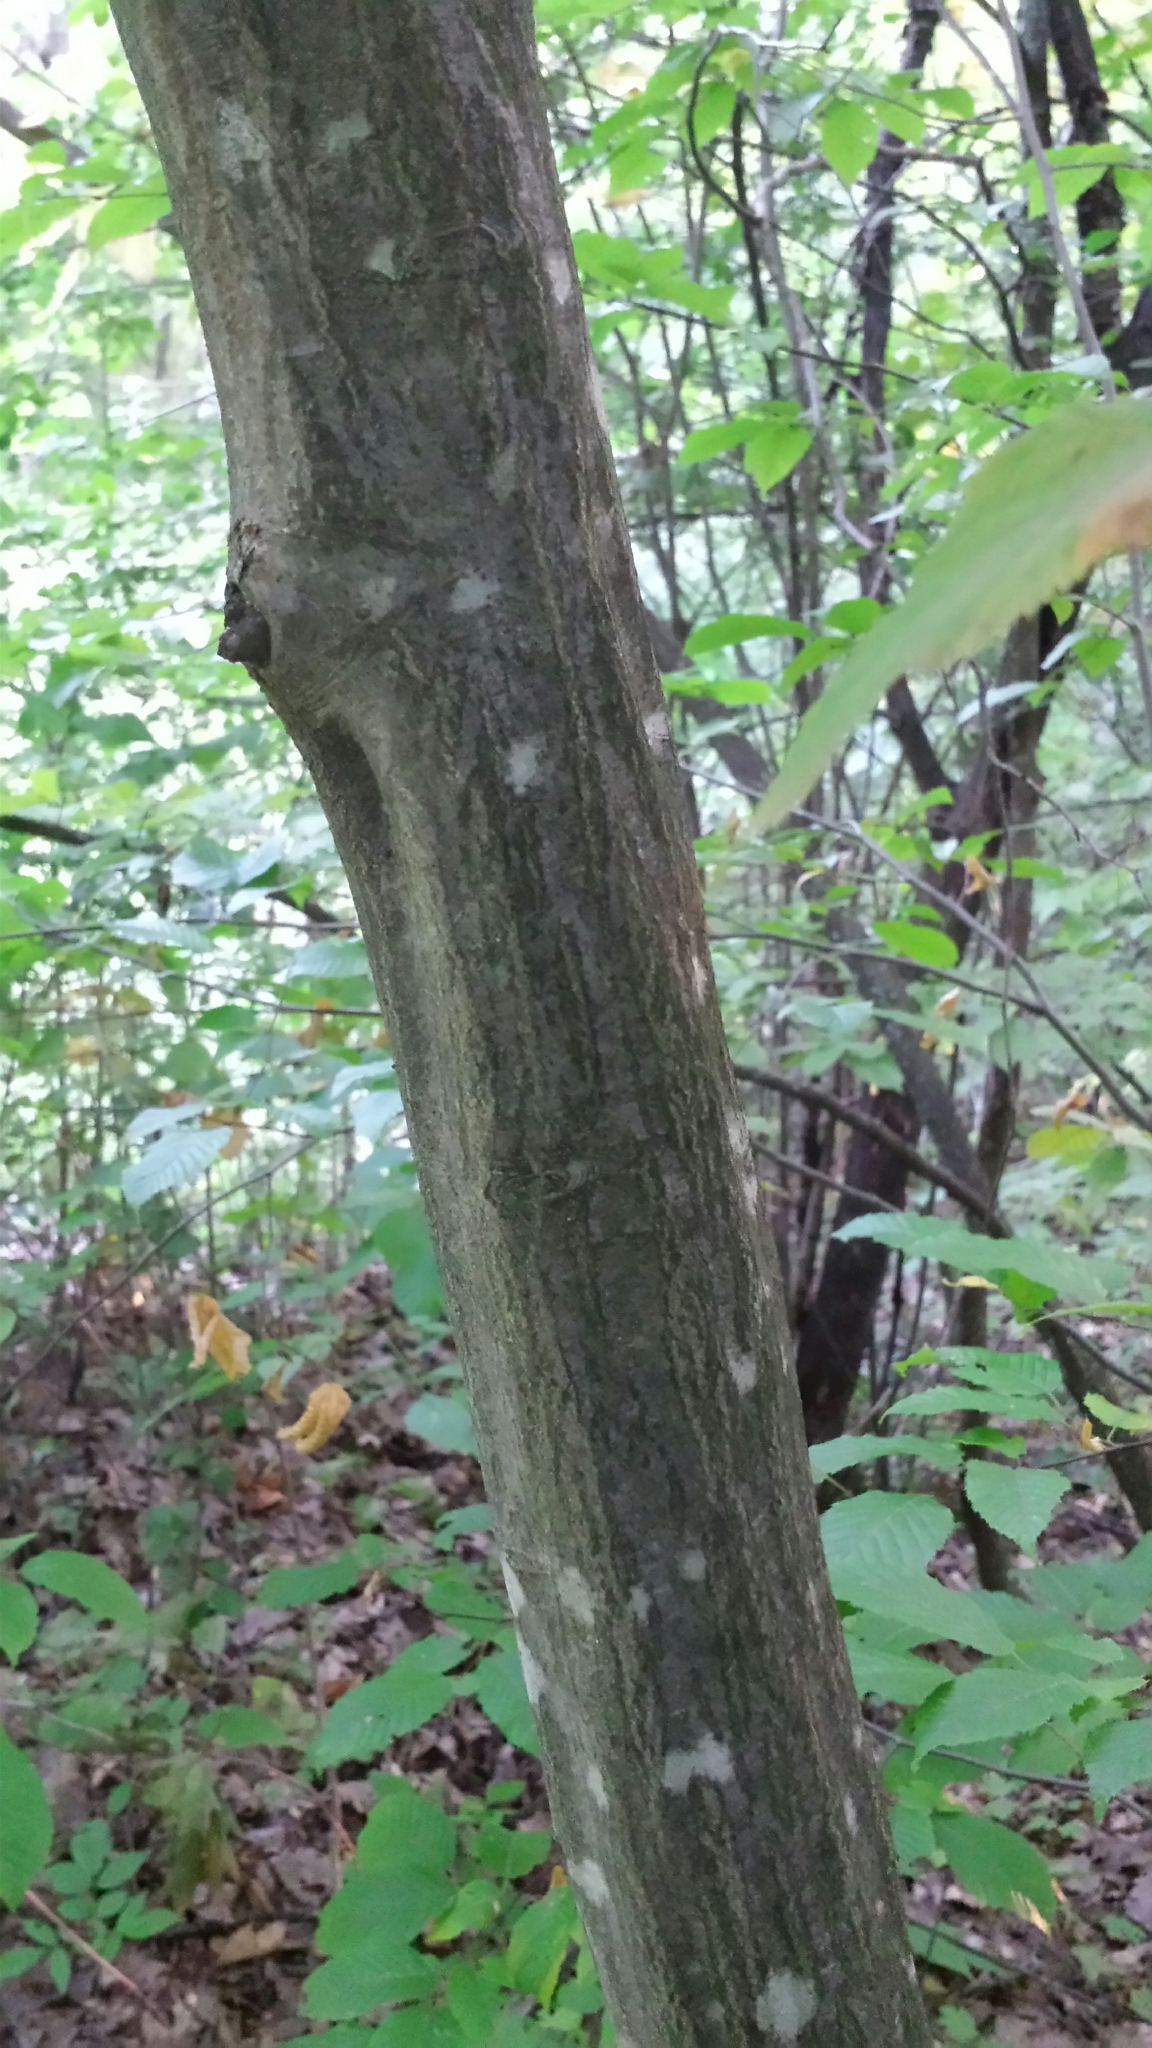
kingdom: Plantae
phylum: Tracheophyta
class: Magnoliopsida
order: Fagales
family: Betulaceae
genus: Carpinus
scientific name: Carpinus caroliniana
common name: American hornbeam
